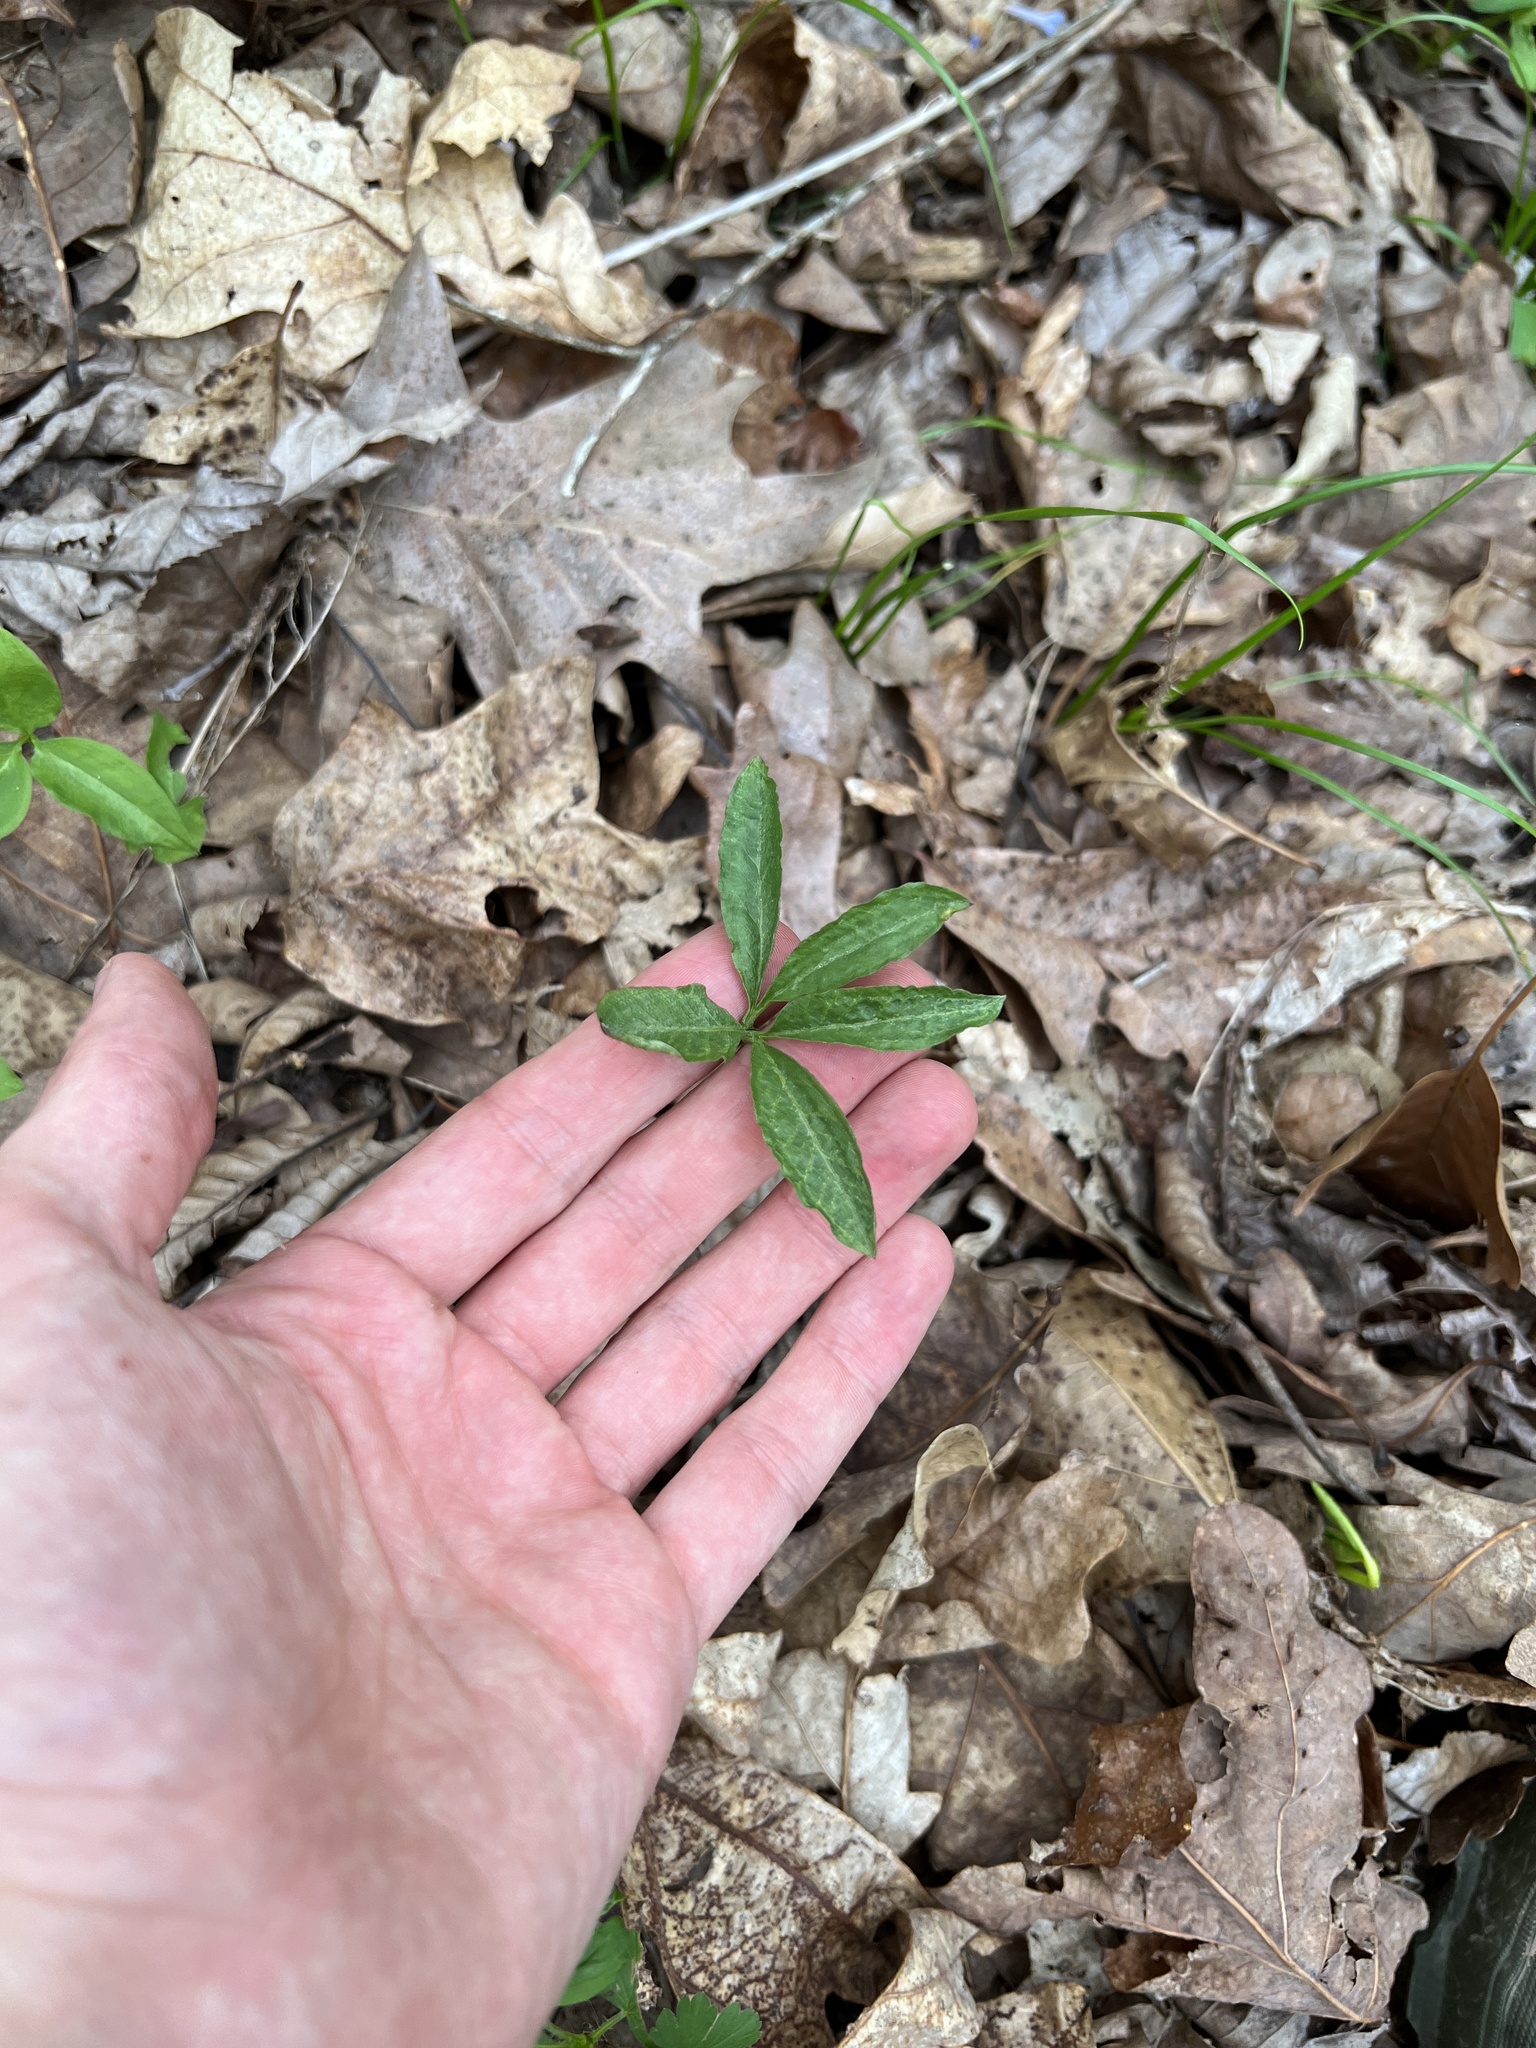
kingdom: Plantae
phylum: Tracheophyta
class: Liliopsida
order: Alismatales
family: Araceae
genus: Arisaema
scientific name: Arisaema dracontium
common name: Dragon-arum
